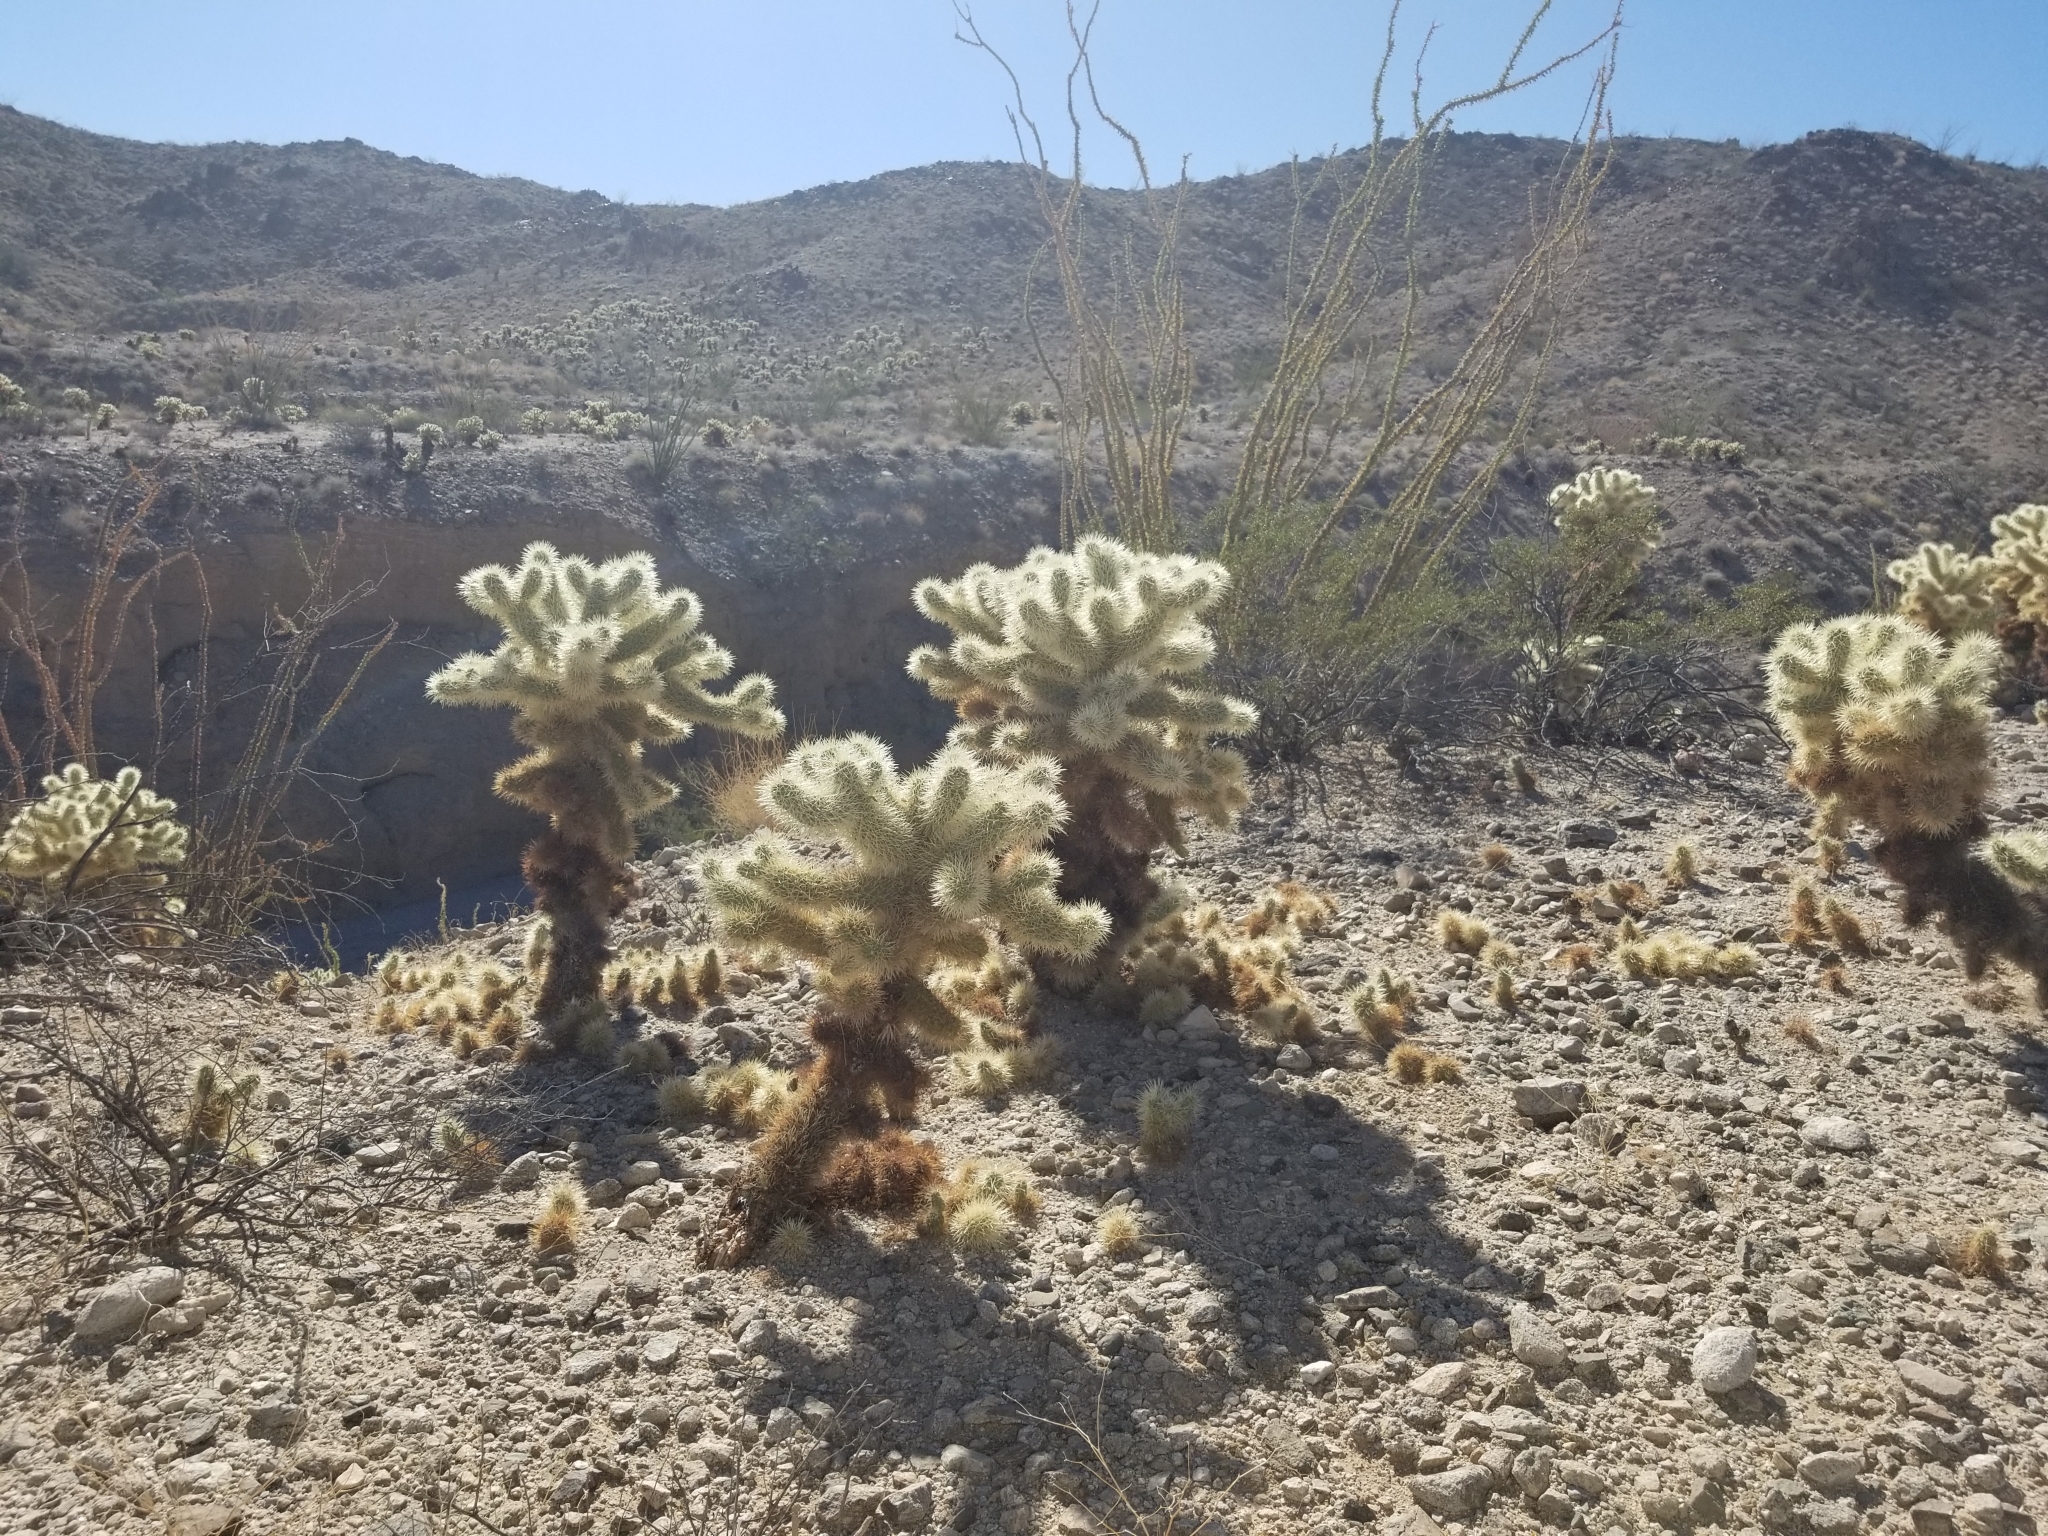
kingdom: Plantae
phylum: Tracheophyta
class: Magnoliopsida
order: Caryophyllales
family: Cactaceae
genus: Cylindropuntia
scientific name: Cylindropuntia fosbergii
